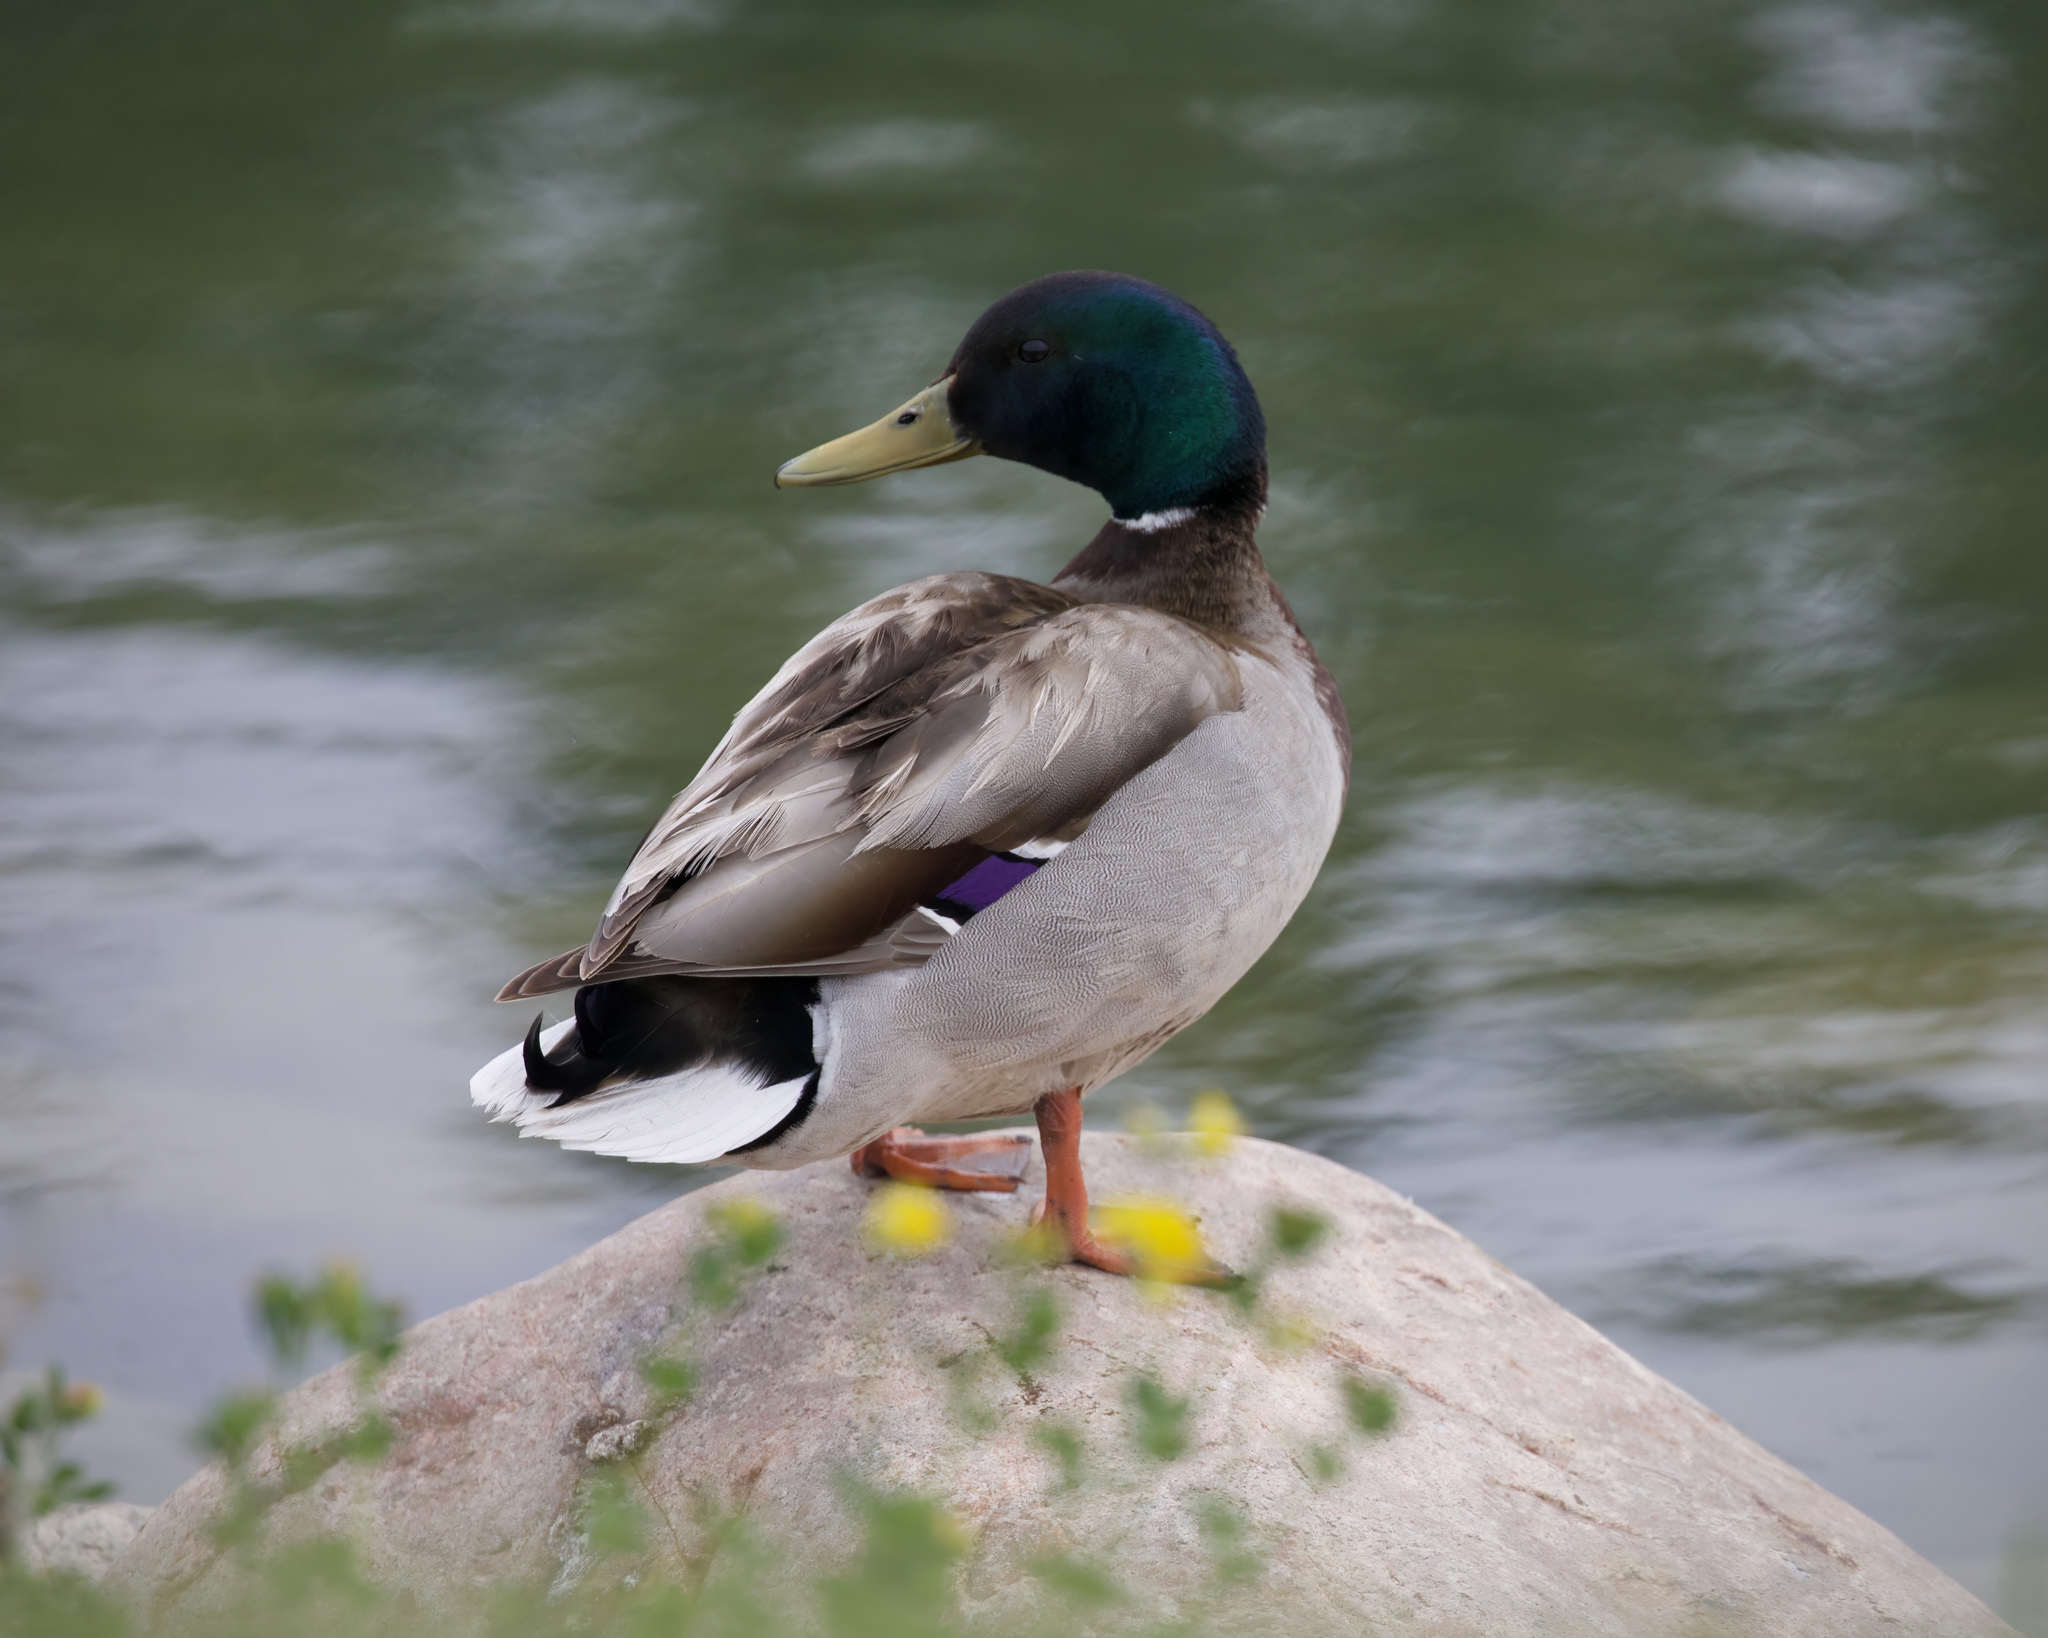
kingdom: Animalia
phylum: Chordata
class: Aves
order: Anseriformes
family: Anatidae
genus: Anas
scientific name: Anas platyrhynchos
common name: Mallard
